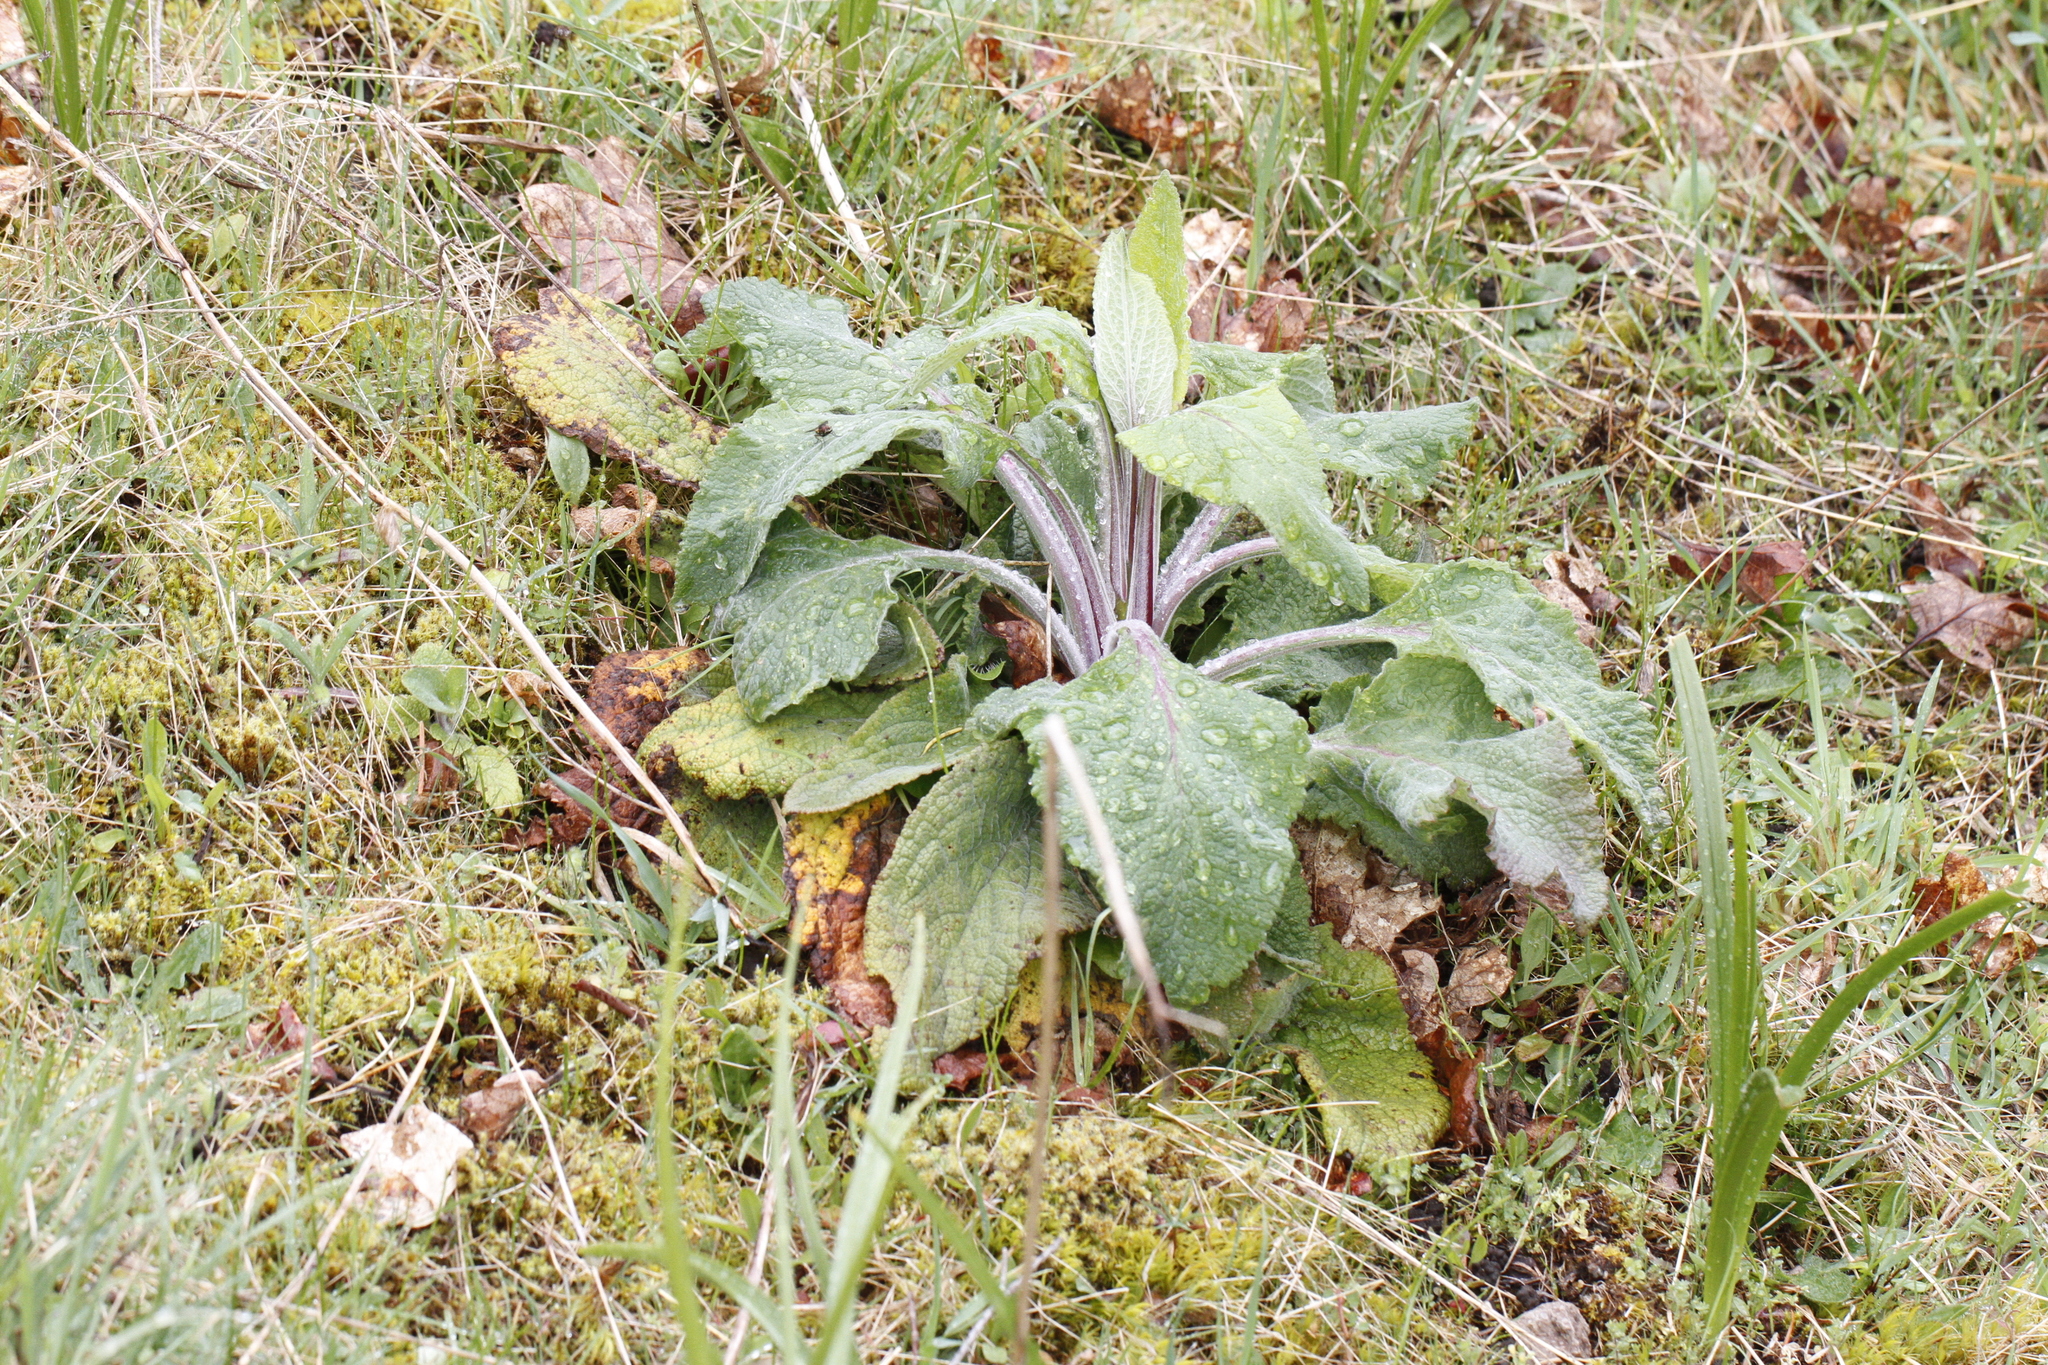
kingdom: Plantae
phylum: Tracheophyta
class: Magnoliopsida
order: Lamiales
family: Plantaginaceae
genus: Digitalis
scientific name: Digitalis purpurea
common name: Foxglove
